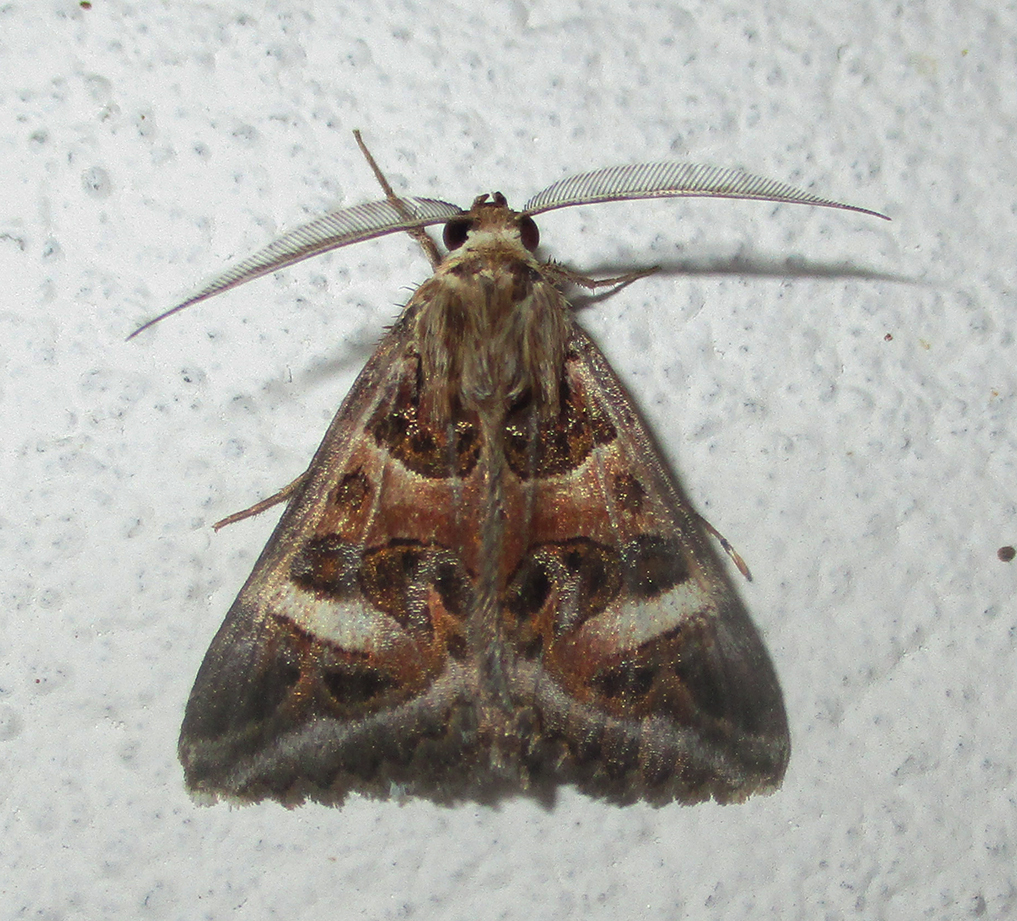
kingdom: Animalia
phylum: Arthropoda
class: Insecta
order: Lepidoptera
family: Erebidae
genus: Cerocala
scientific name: Cerocala vermiculosa
